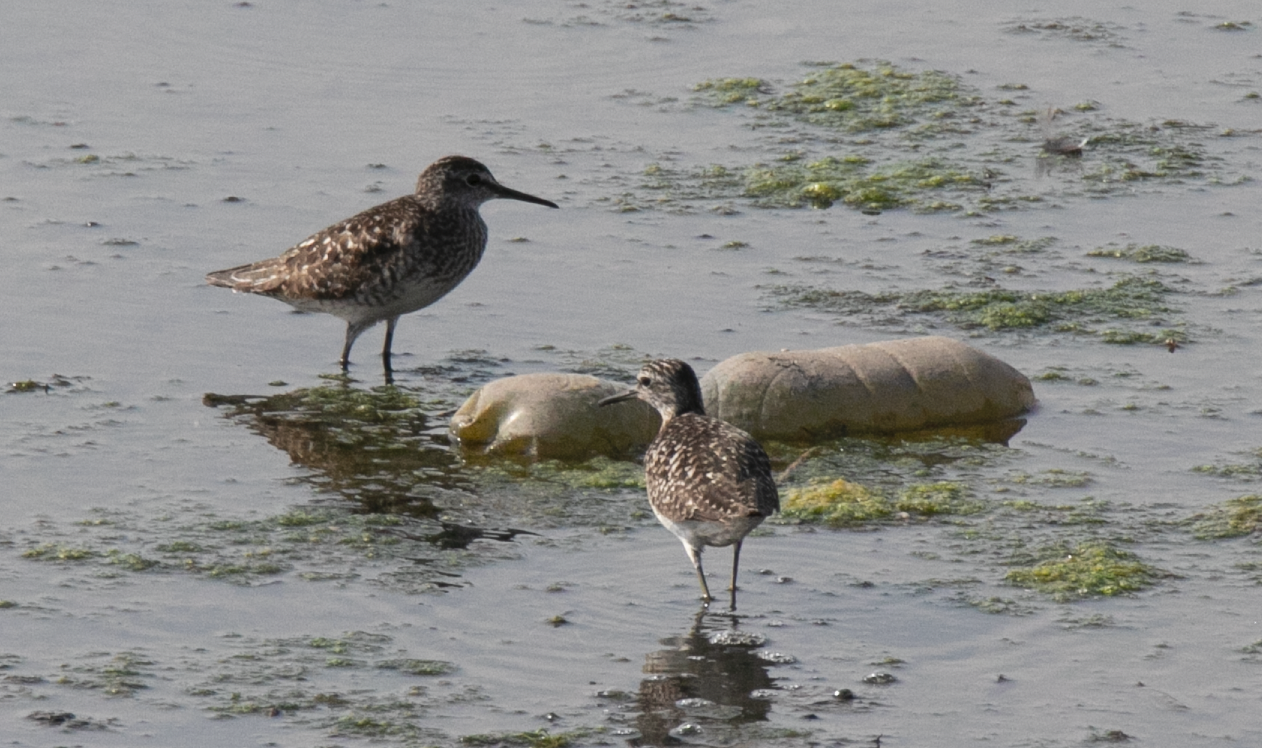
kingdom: Animalia
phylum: Chordata
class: Aves
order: Charadriiformes
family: Scolopacidae
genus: Tringa
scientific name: Tringa glareola
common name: Wood sandpiper
